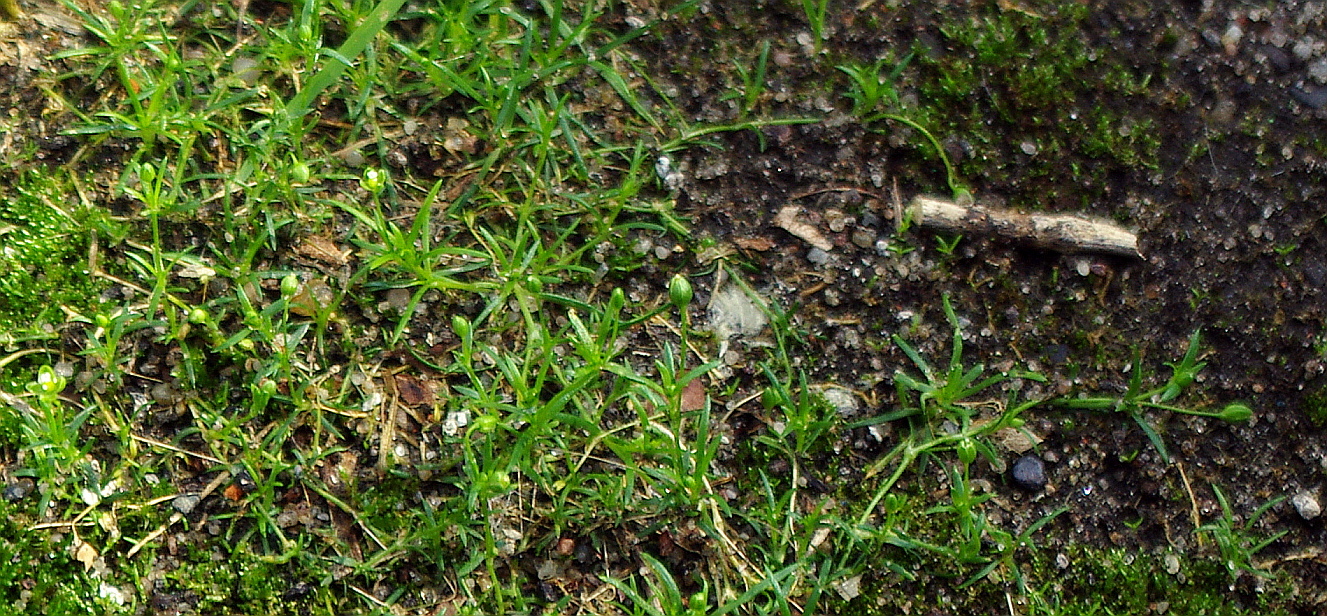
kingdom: Plantae
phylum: Tracheophyta
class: Magnoliopsida
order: Caryophyllales
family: Caryophyllaceae
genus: Sagina
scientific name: Sagina procumbens
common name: Procumbent pearlwort
